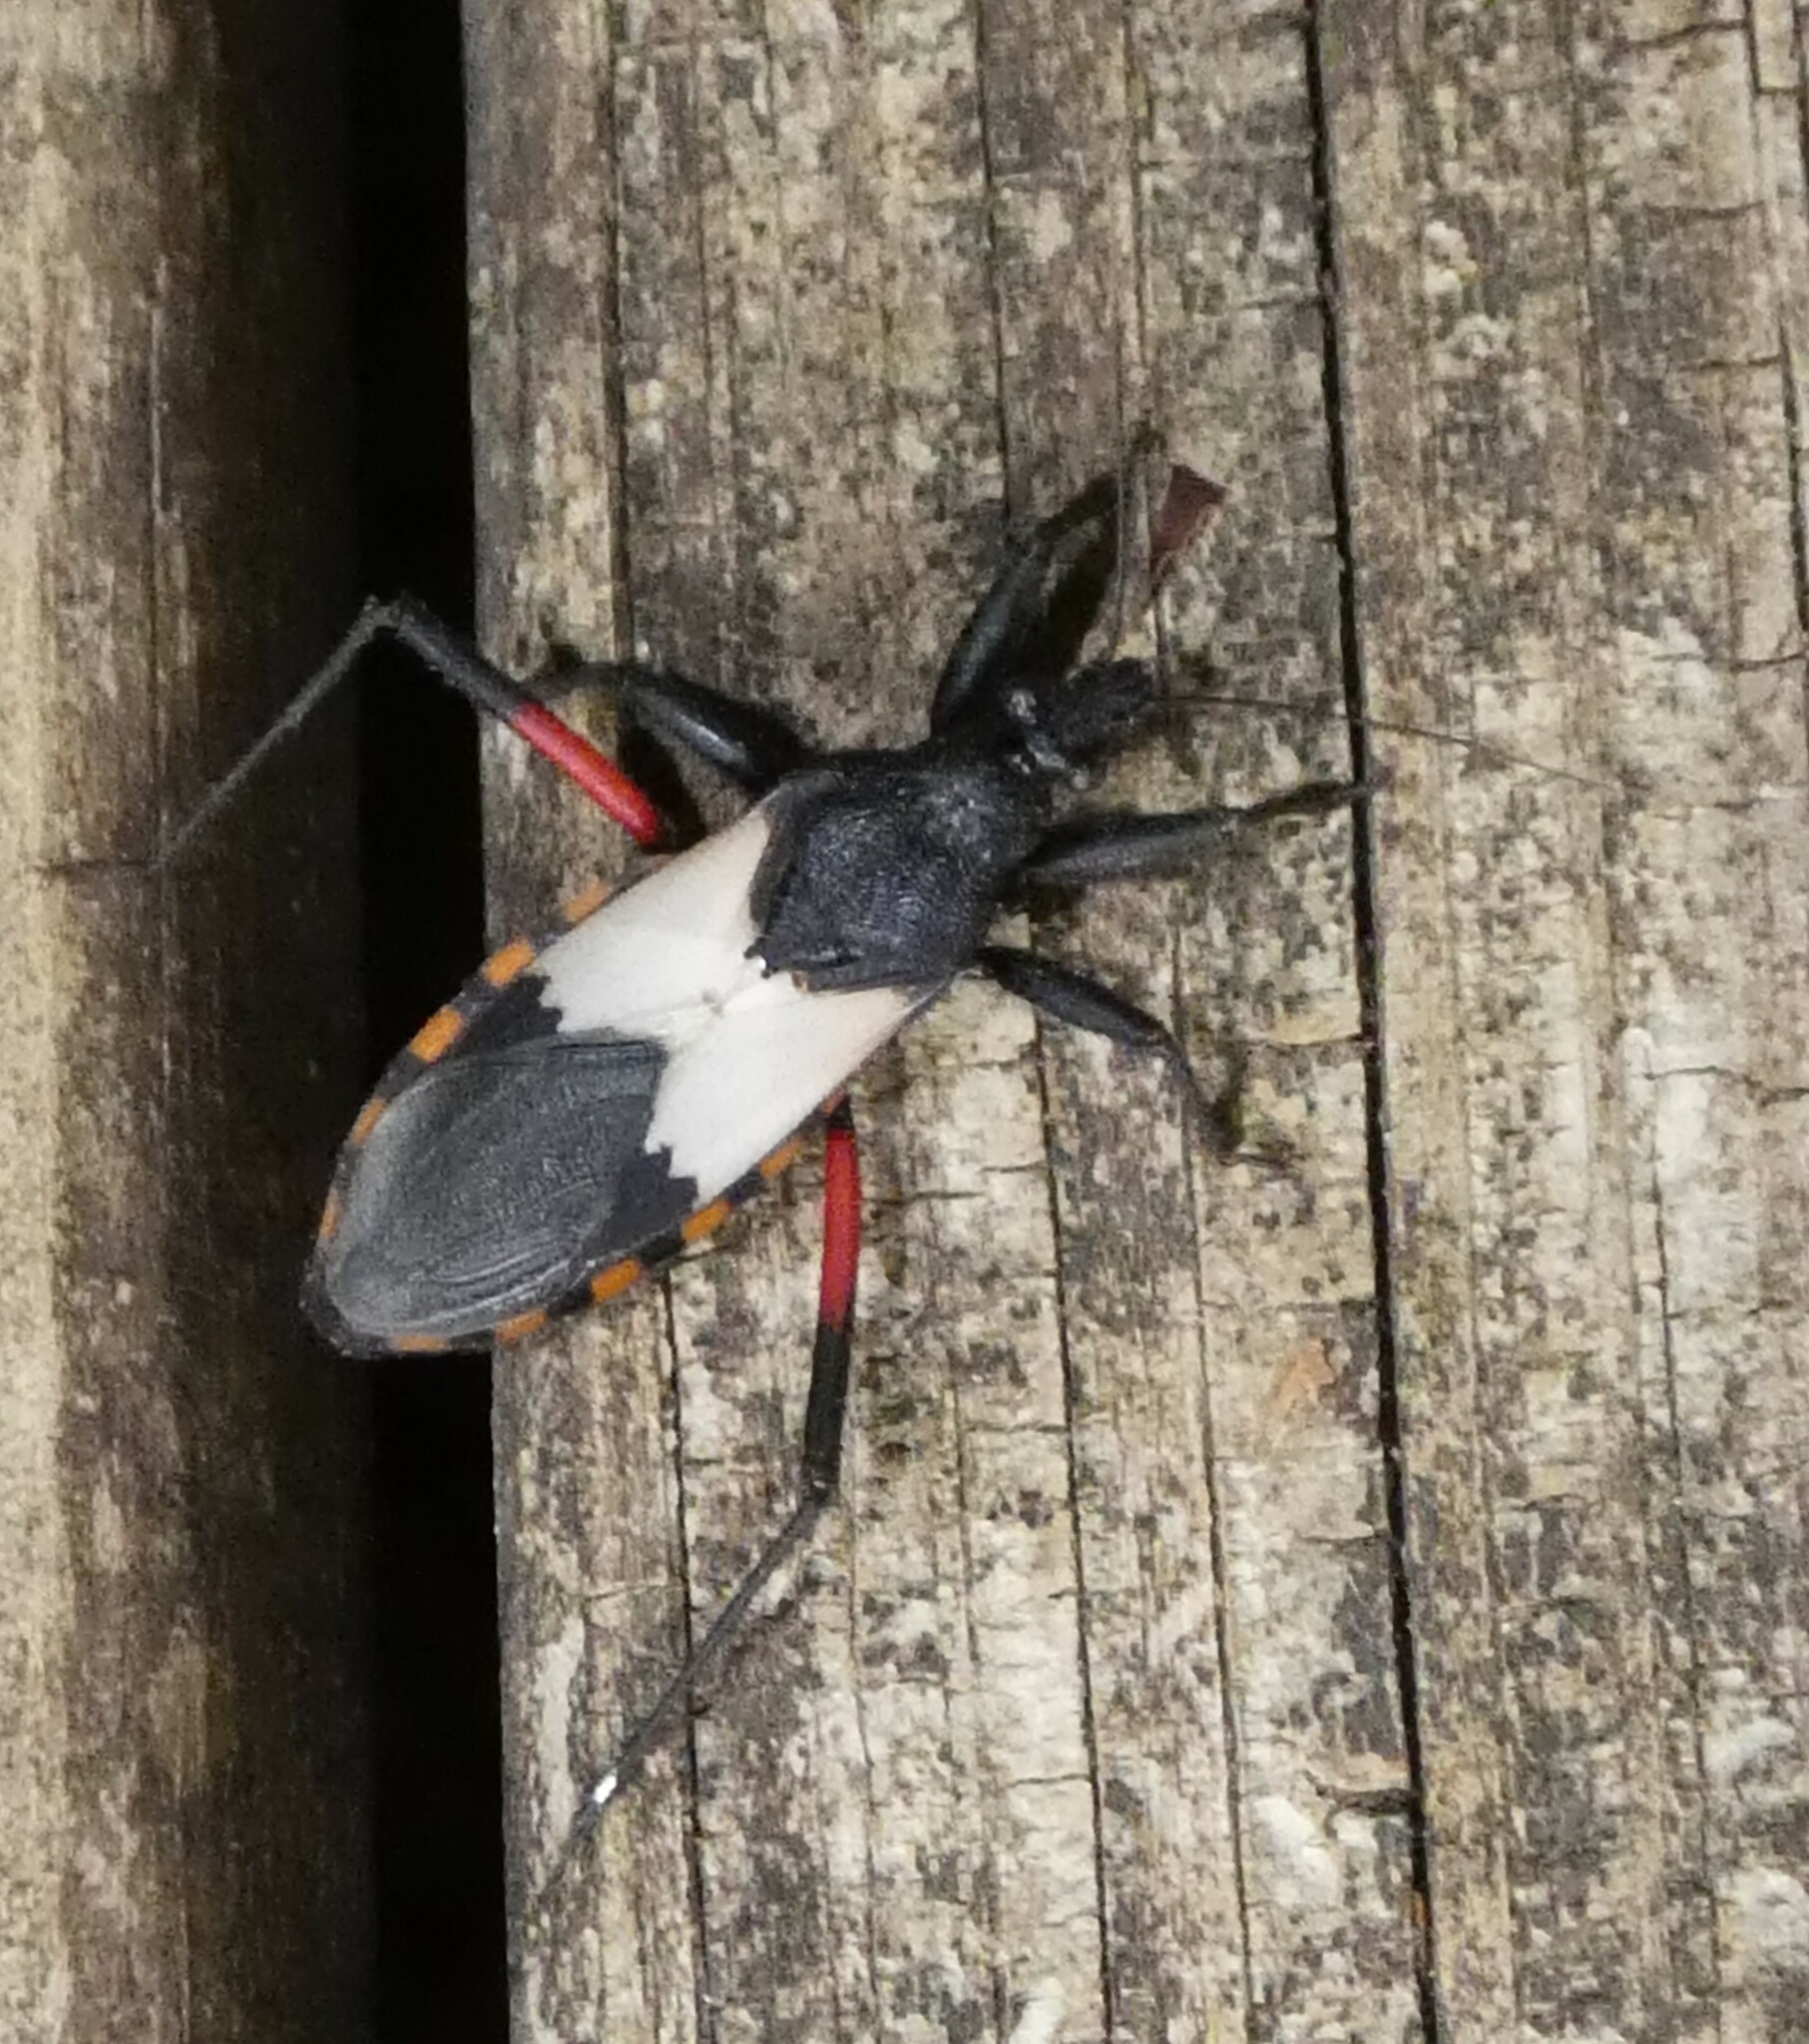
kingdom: Animalia
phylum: Arthropoda
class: Insecta
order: Hemiptera
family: Reduviidae
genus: Microtomus
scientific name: Microtomus purcis
